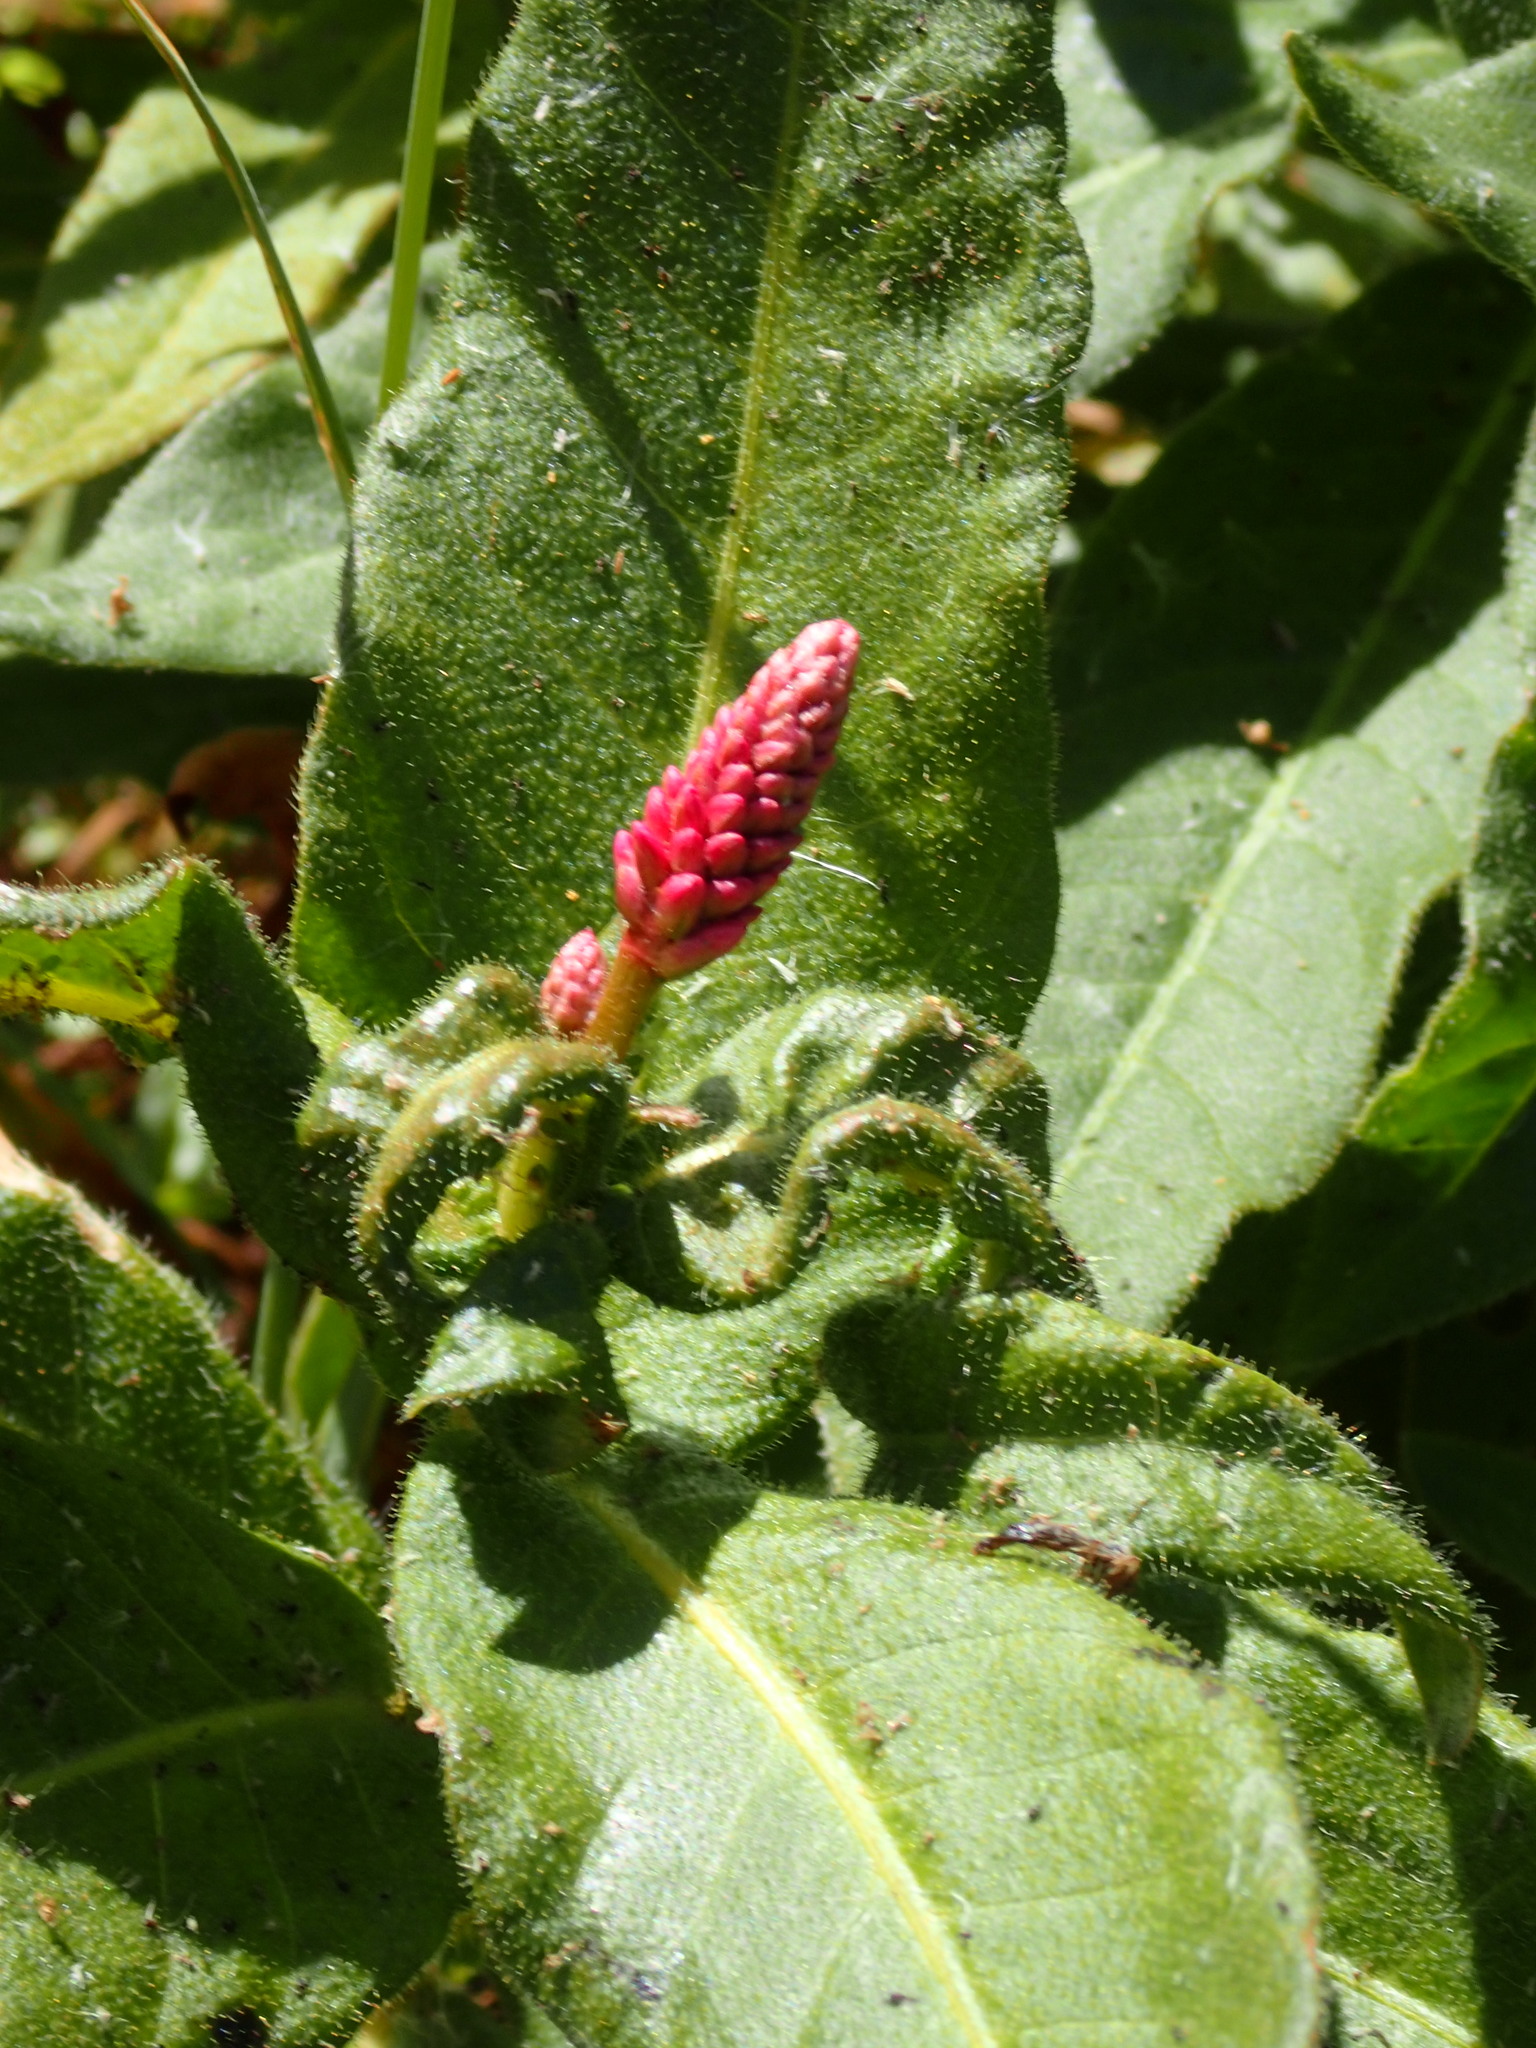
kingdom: Plantae
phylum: Tracheophyta
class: Magnoliopsida
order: Caryophyllales
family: Polygonaceae
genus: Persicaria
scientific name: Persicaria amphibia
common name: Amphibious bistort
